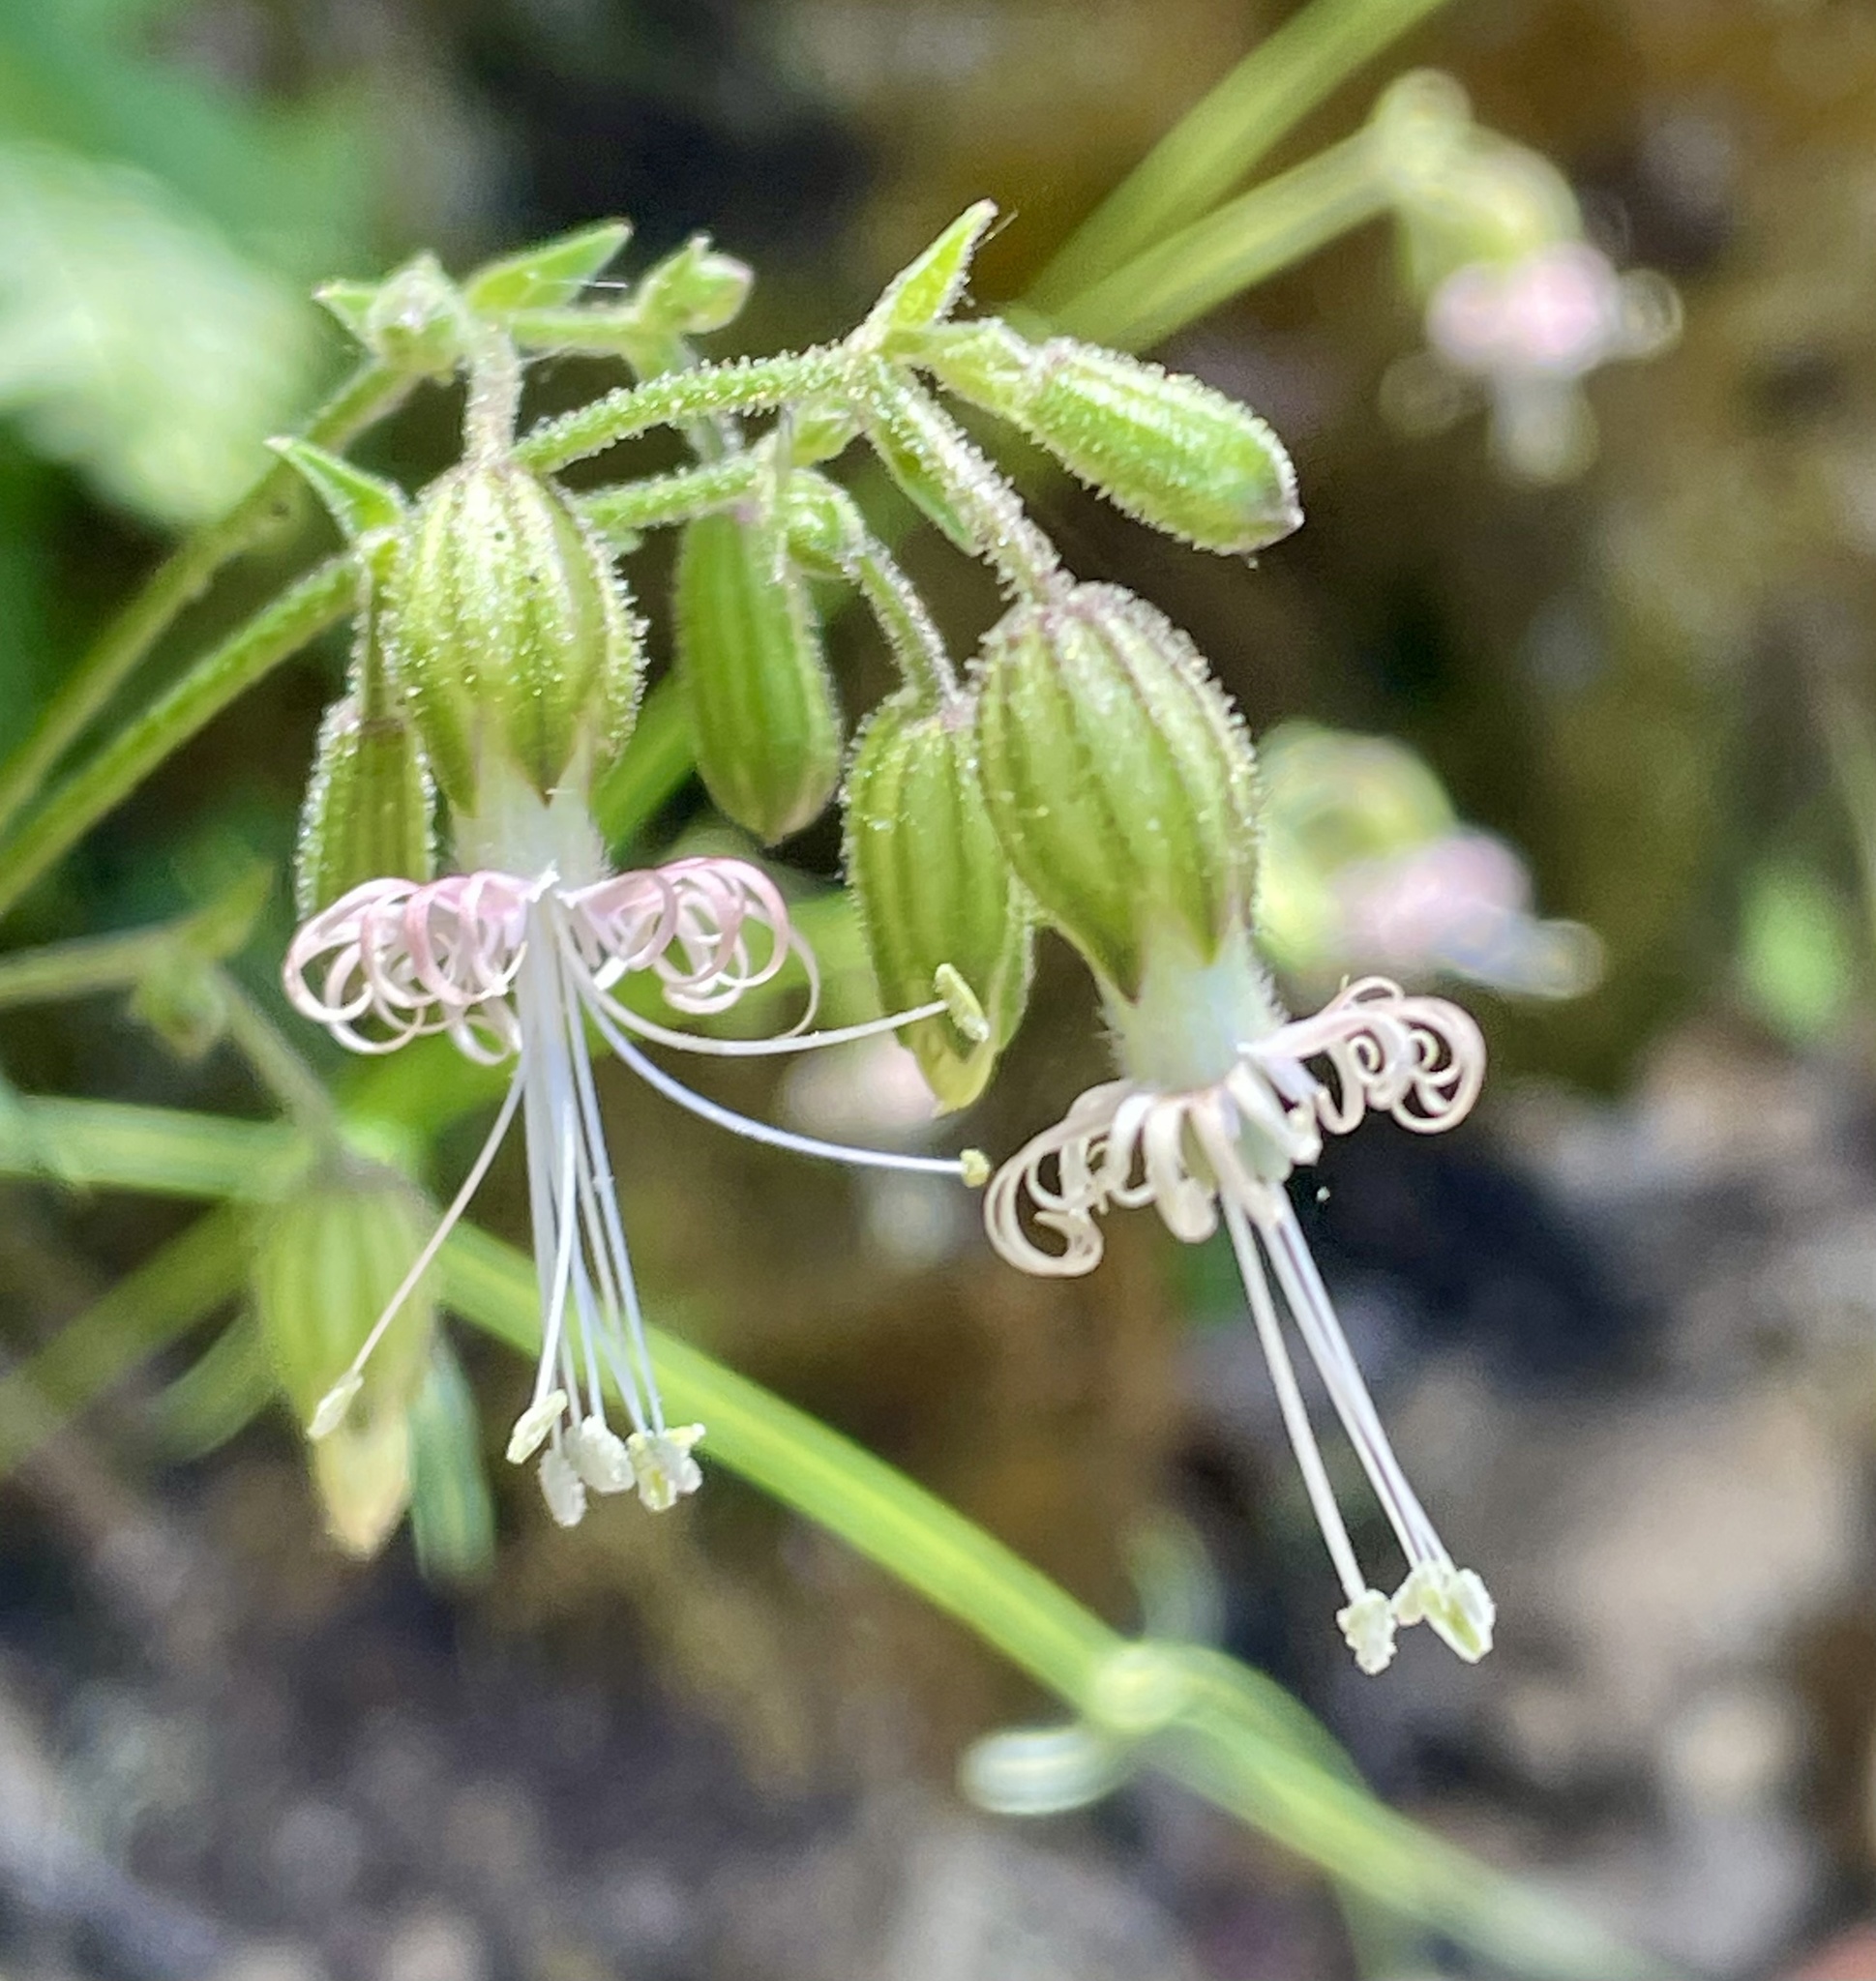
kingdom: Plantae
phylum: Tracheophyta
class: Magnoliopsida
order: Caryophyllales
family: Caryophyllaceae
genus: Silene
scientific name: Silene lemmonii
